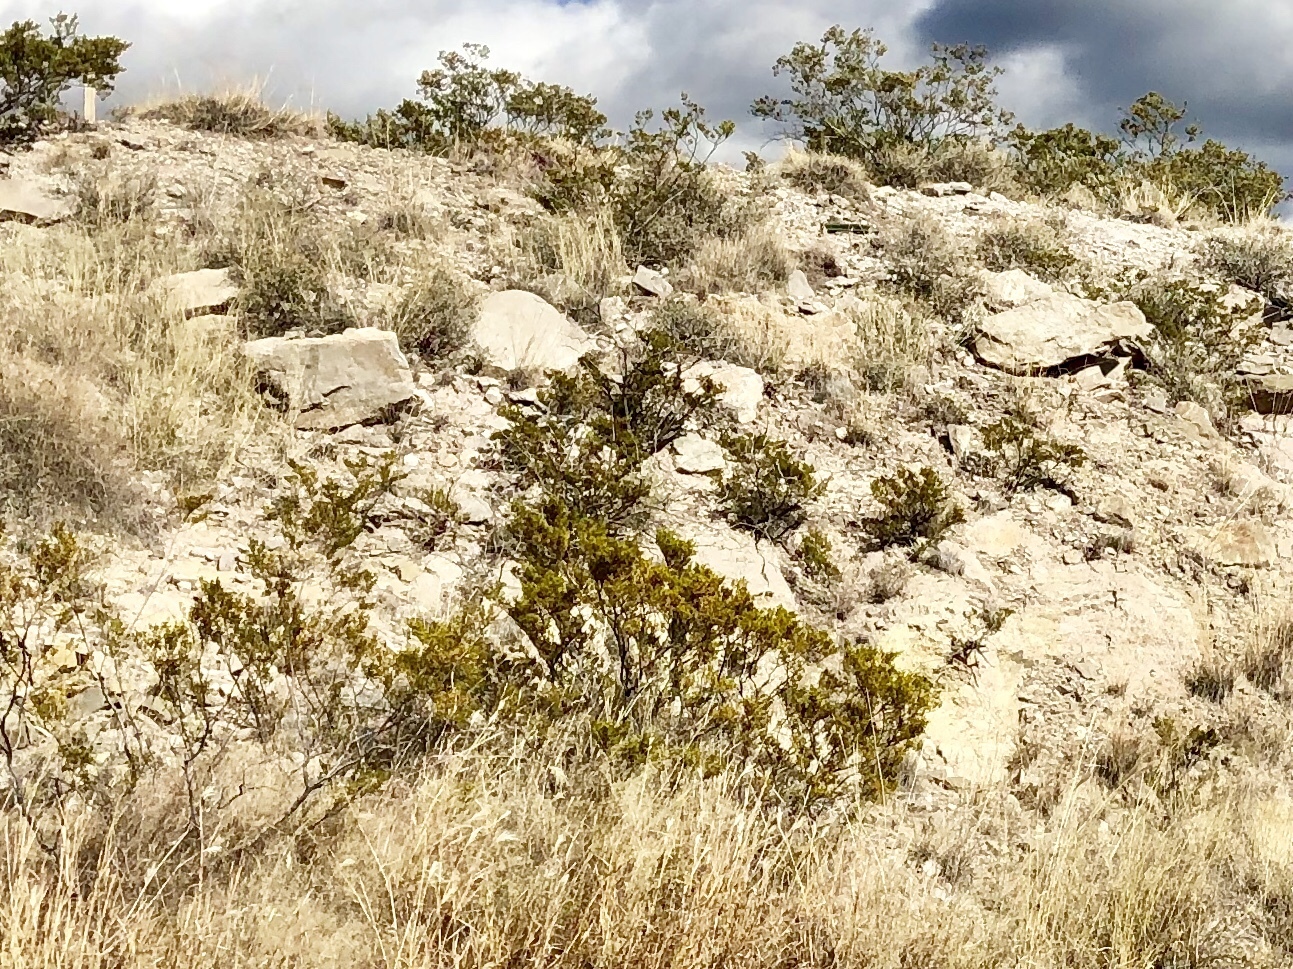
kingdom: Plantae
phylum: Tracheophyta
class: Magnoliopsida
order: Zygophyllales
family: Zygophyllaceae
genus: Larrea
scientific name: Larrea tridentata
